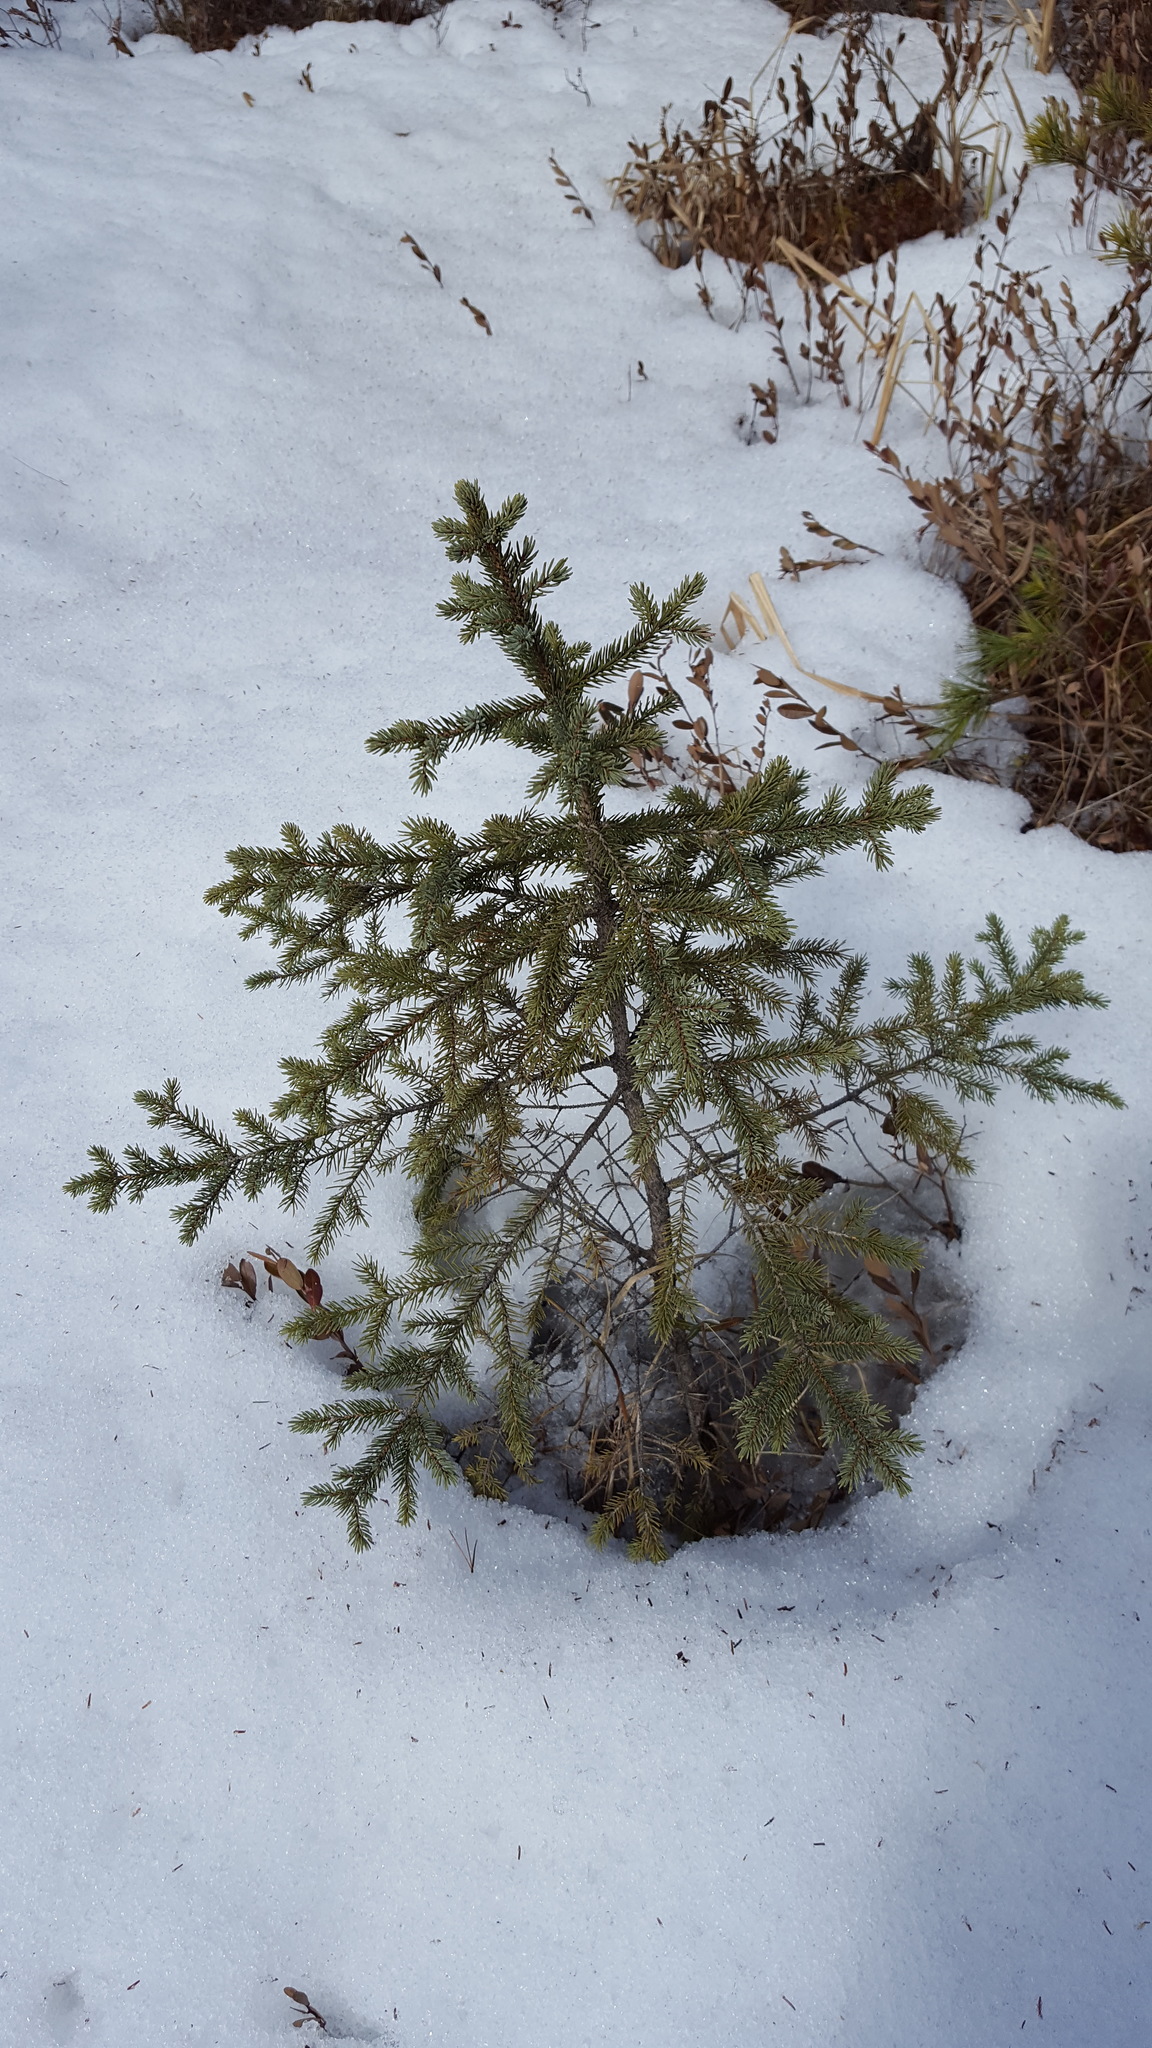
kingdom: Plantae
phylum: Tracheophyta
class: Pinopsida
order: Pinales
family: Pinaceae
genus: Picea
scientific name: Picea mariana
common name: Black spruce
